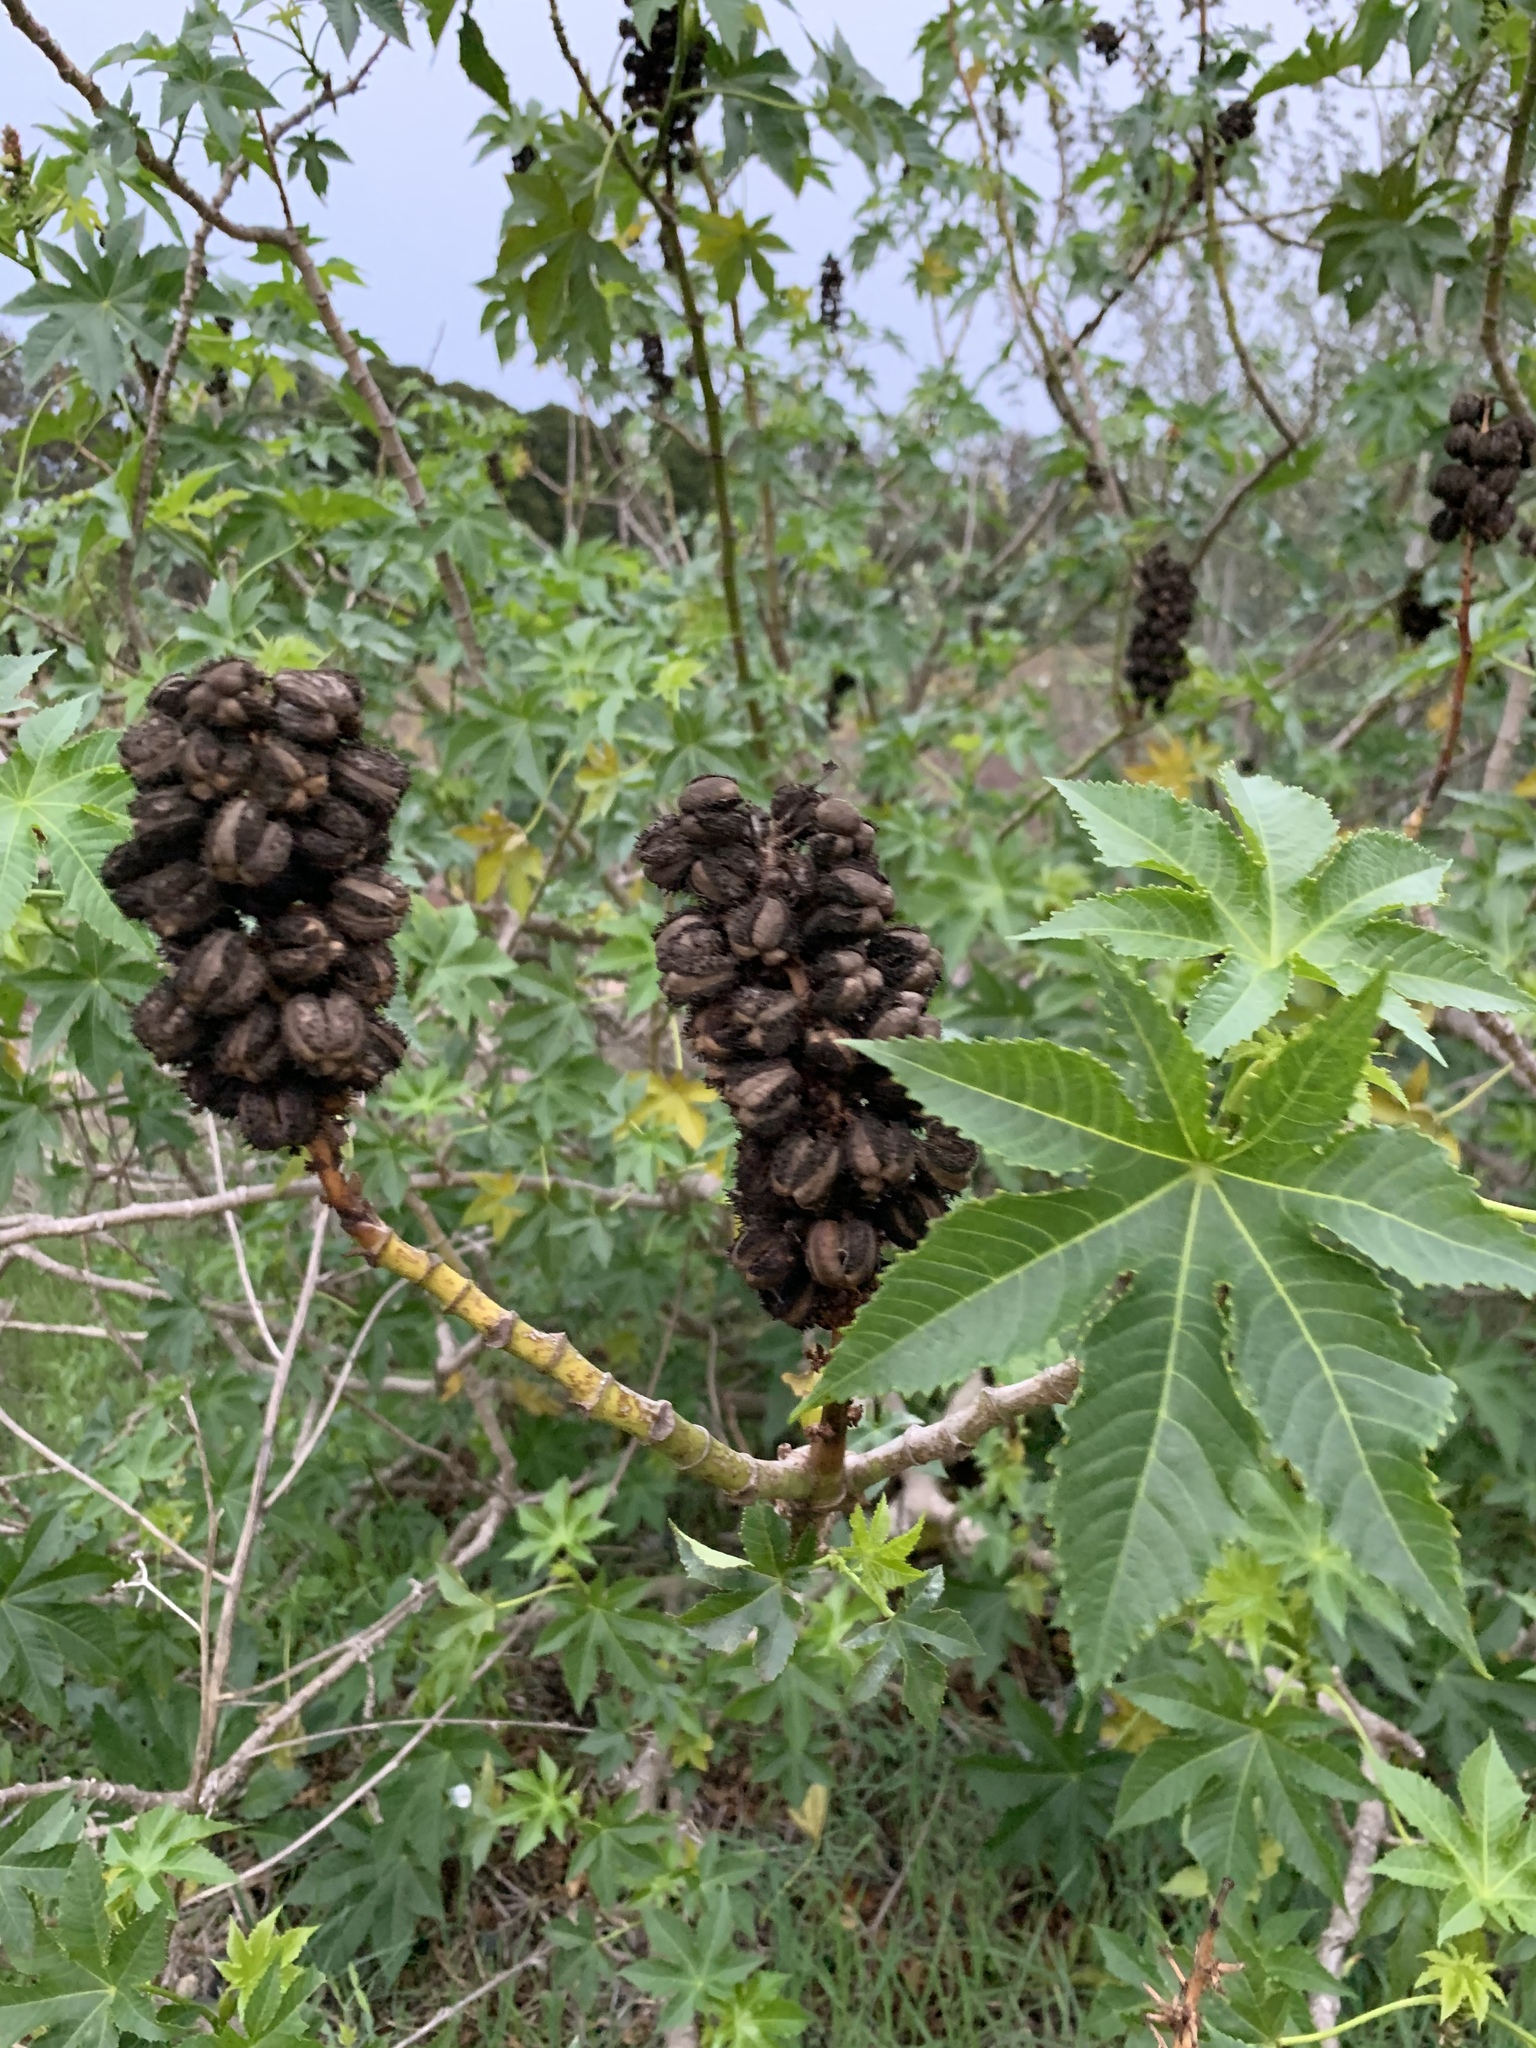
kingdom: Plantae
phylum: Tracheophyta
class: Magnoliopsida
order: Malpighiales
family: Euphorbiaceae
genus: Ricinus
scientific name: Ricinus communis
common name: Castor-oil-plant
